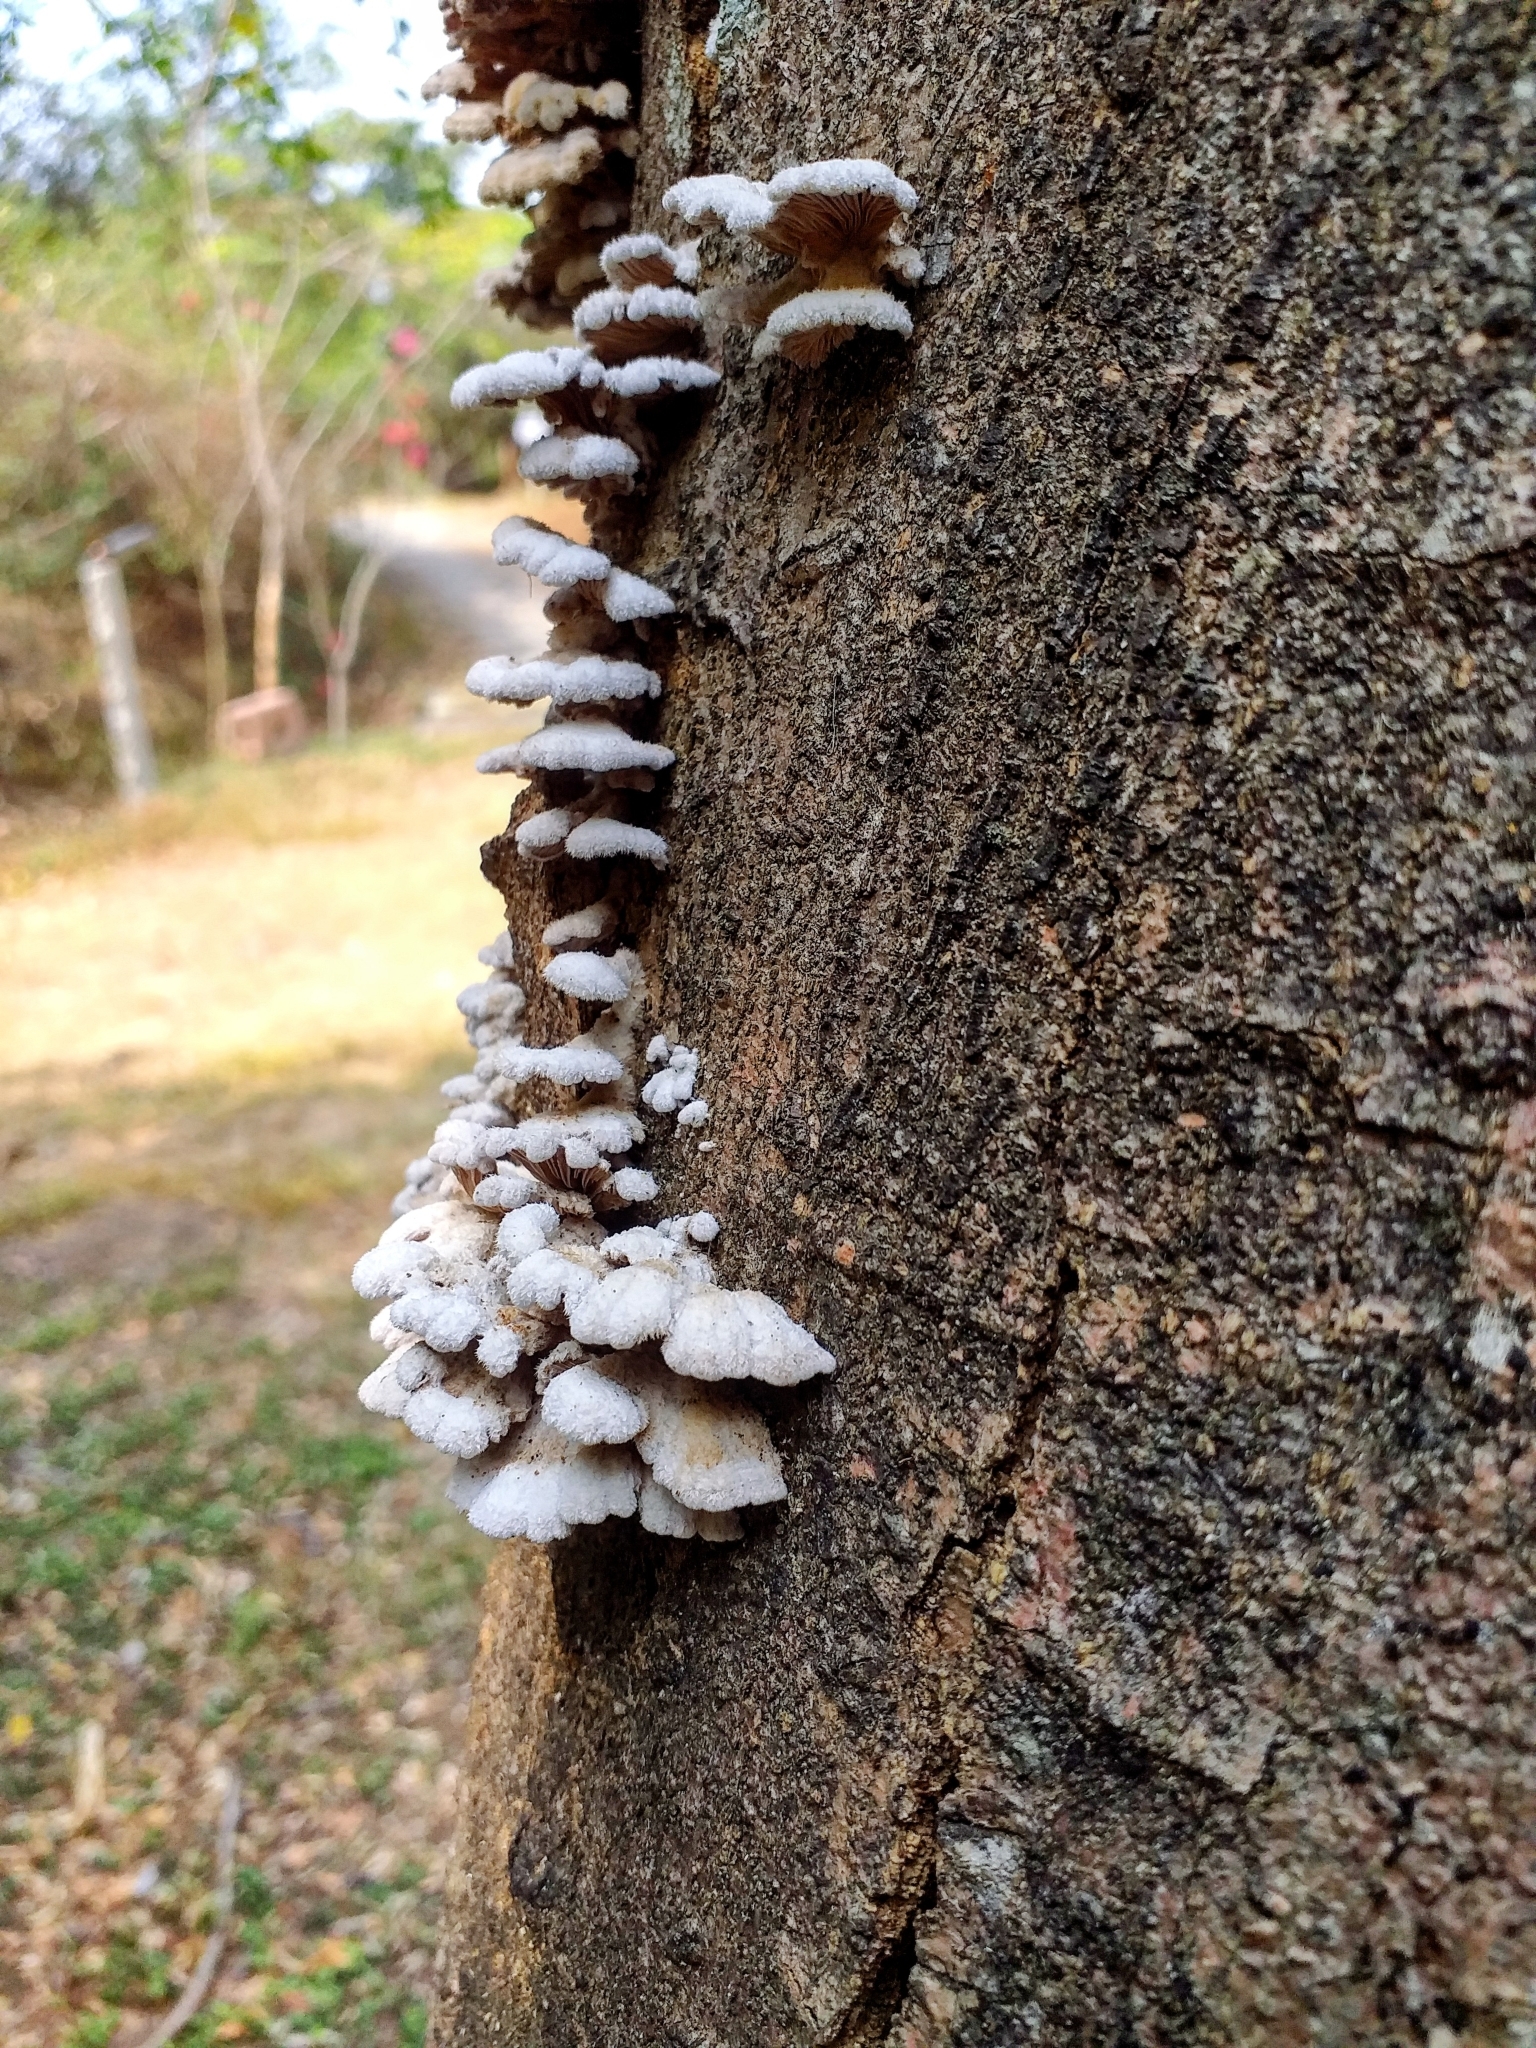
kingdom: Fungi
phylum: Basidiomycota
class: Agaricomycetes
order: Agaricales
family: Schizophyllaceae
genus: Schizophyllum
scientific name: Schizophyllum commune
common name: Common porecrust
